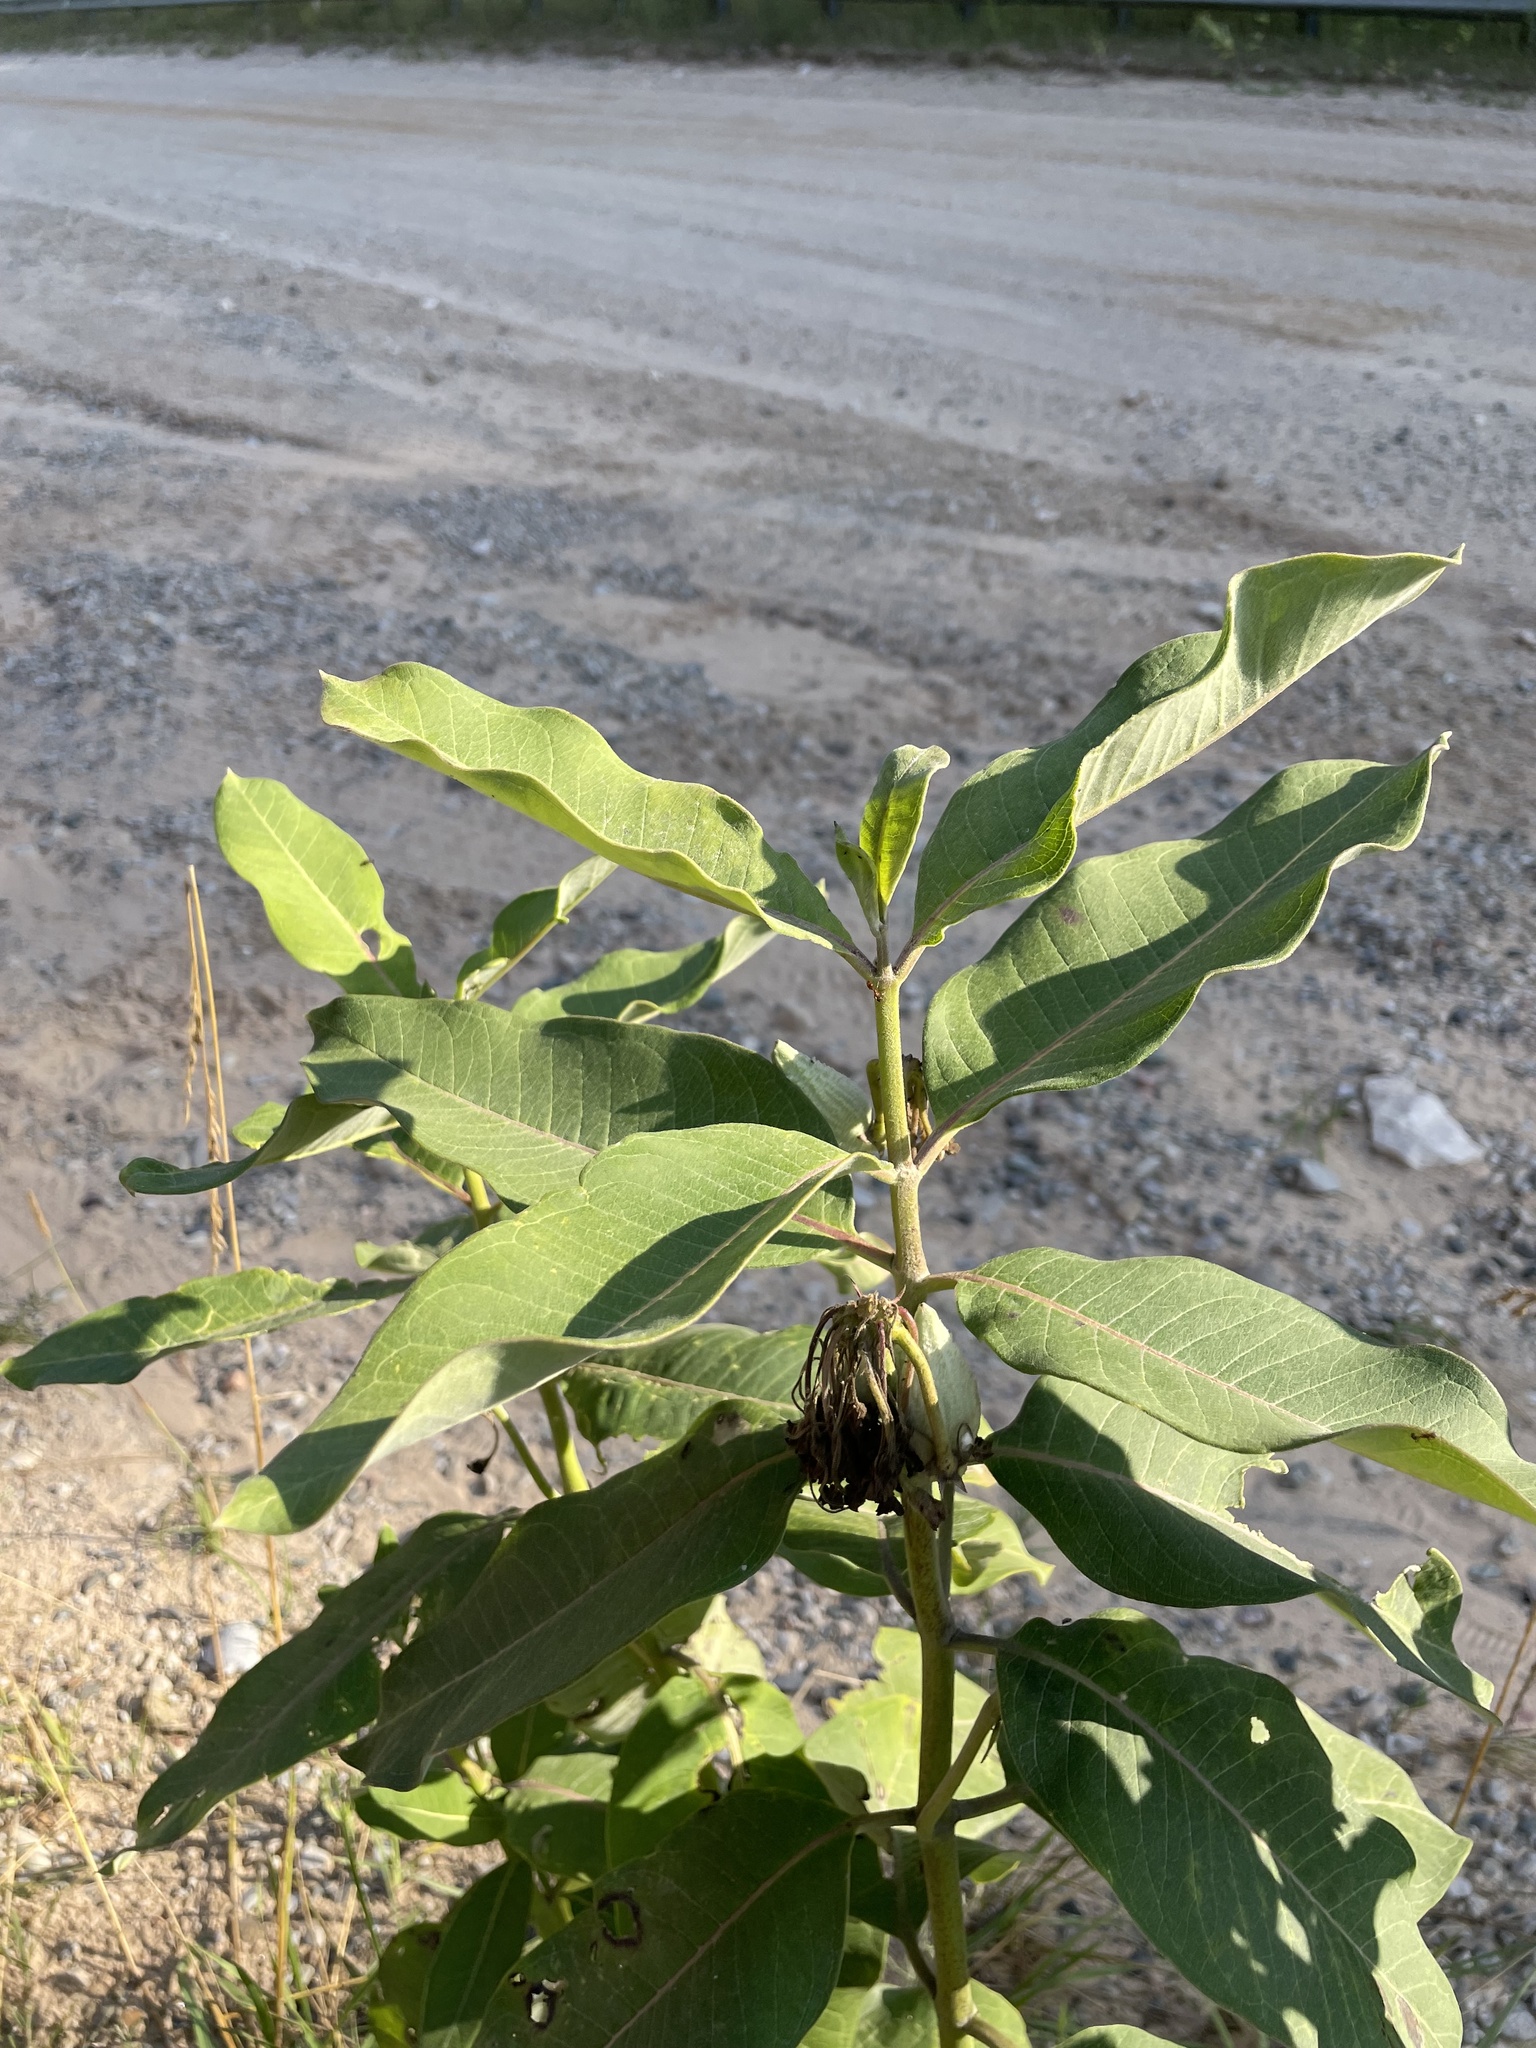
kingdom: Plantae
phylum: Tracheophyta
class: Magnoliopsida
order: Gentianales
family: Apocynaceae
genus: Asclepias
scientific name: Asclepias syriaca
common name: Common milkweed
